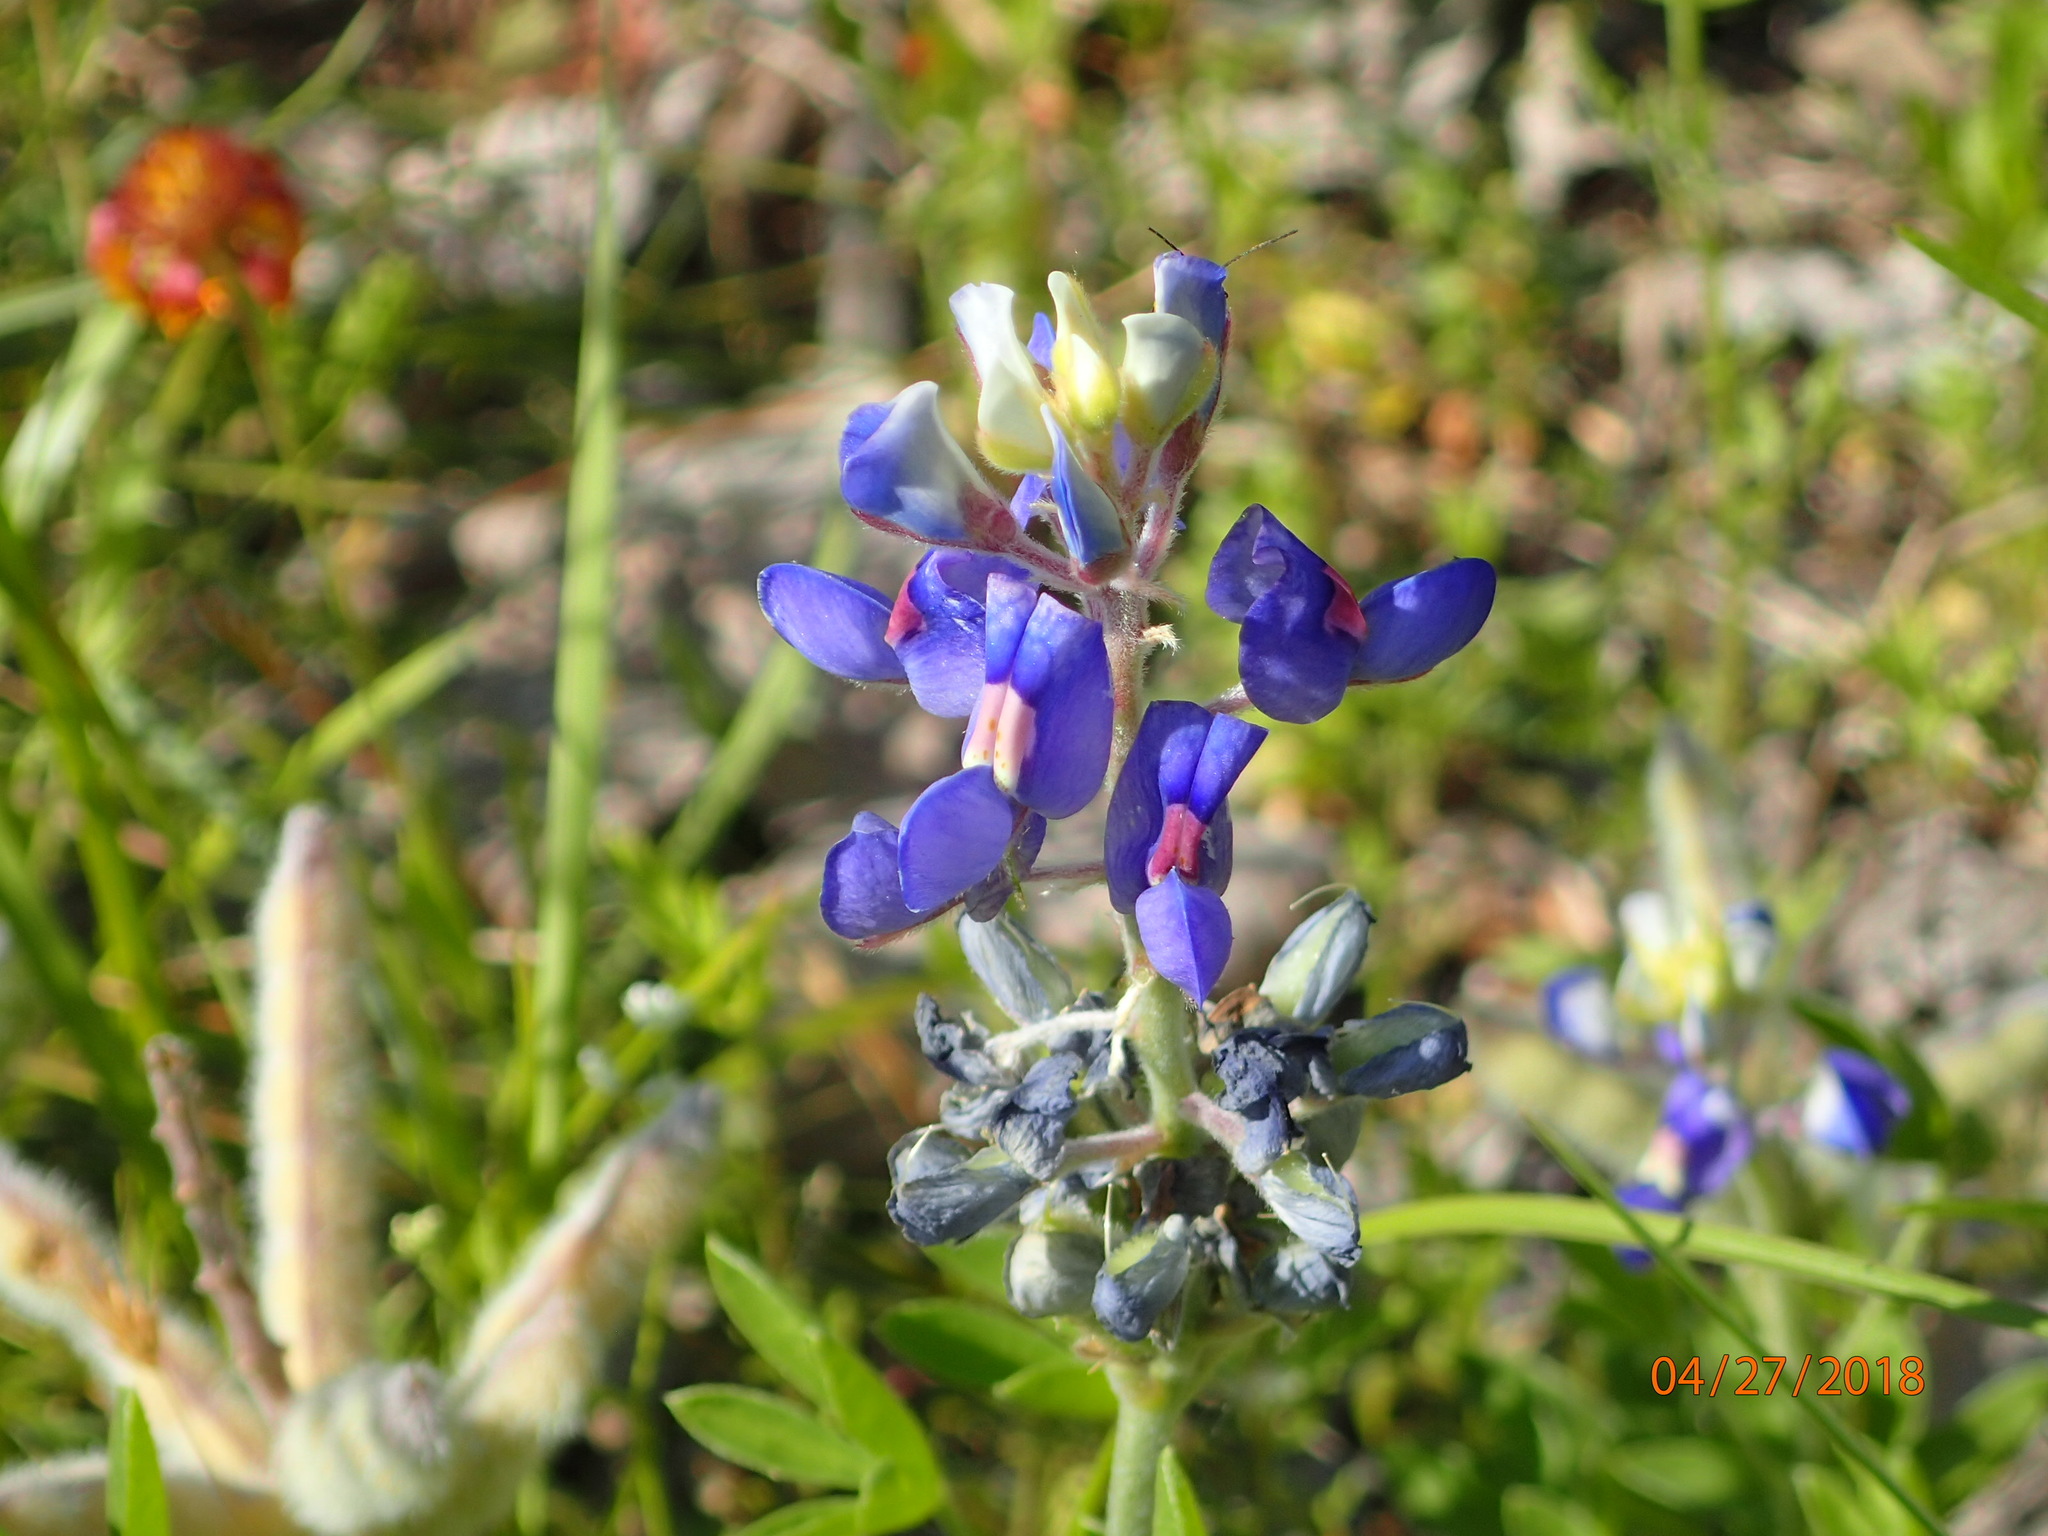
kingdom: Plantae
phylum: Tracheophyta
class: Magnoliopsida
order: Fabales
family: Fabaceae
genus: Lupinus
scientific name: Lupinus texensis
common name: Texas bluebonnet
